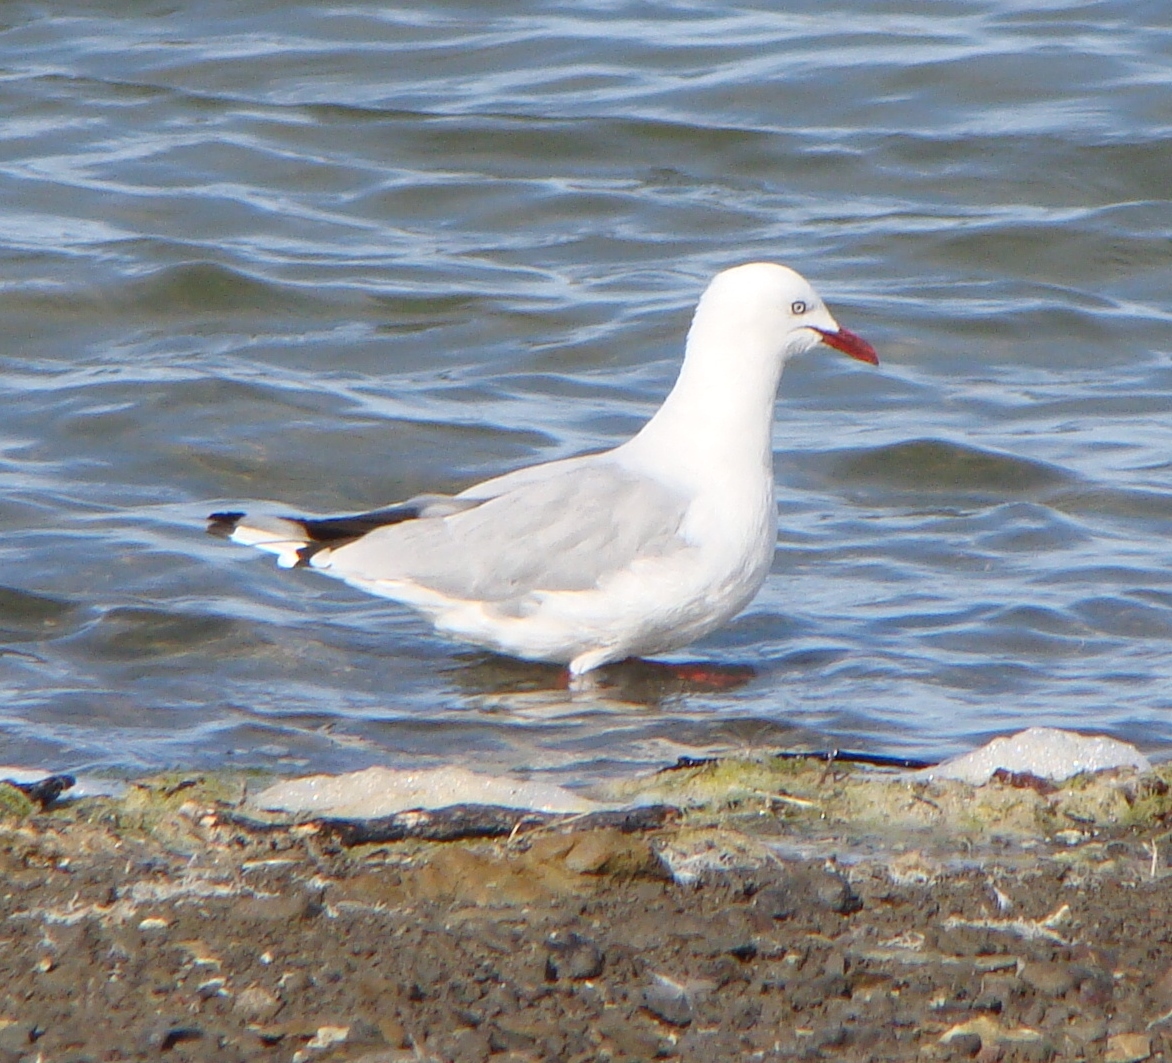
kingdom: Animalia
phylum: Chordata
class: Aves
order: Charadriiformes
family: Laridae
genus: Chroicocephalus
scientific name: Chroicocephalus novaehollandiae
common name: Silver gull
